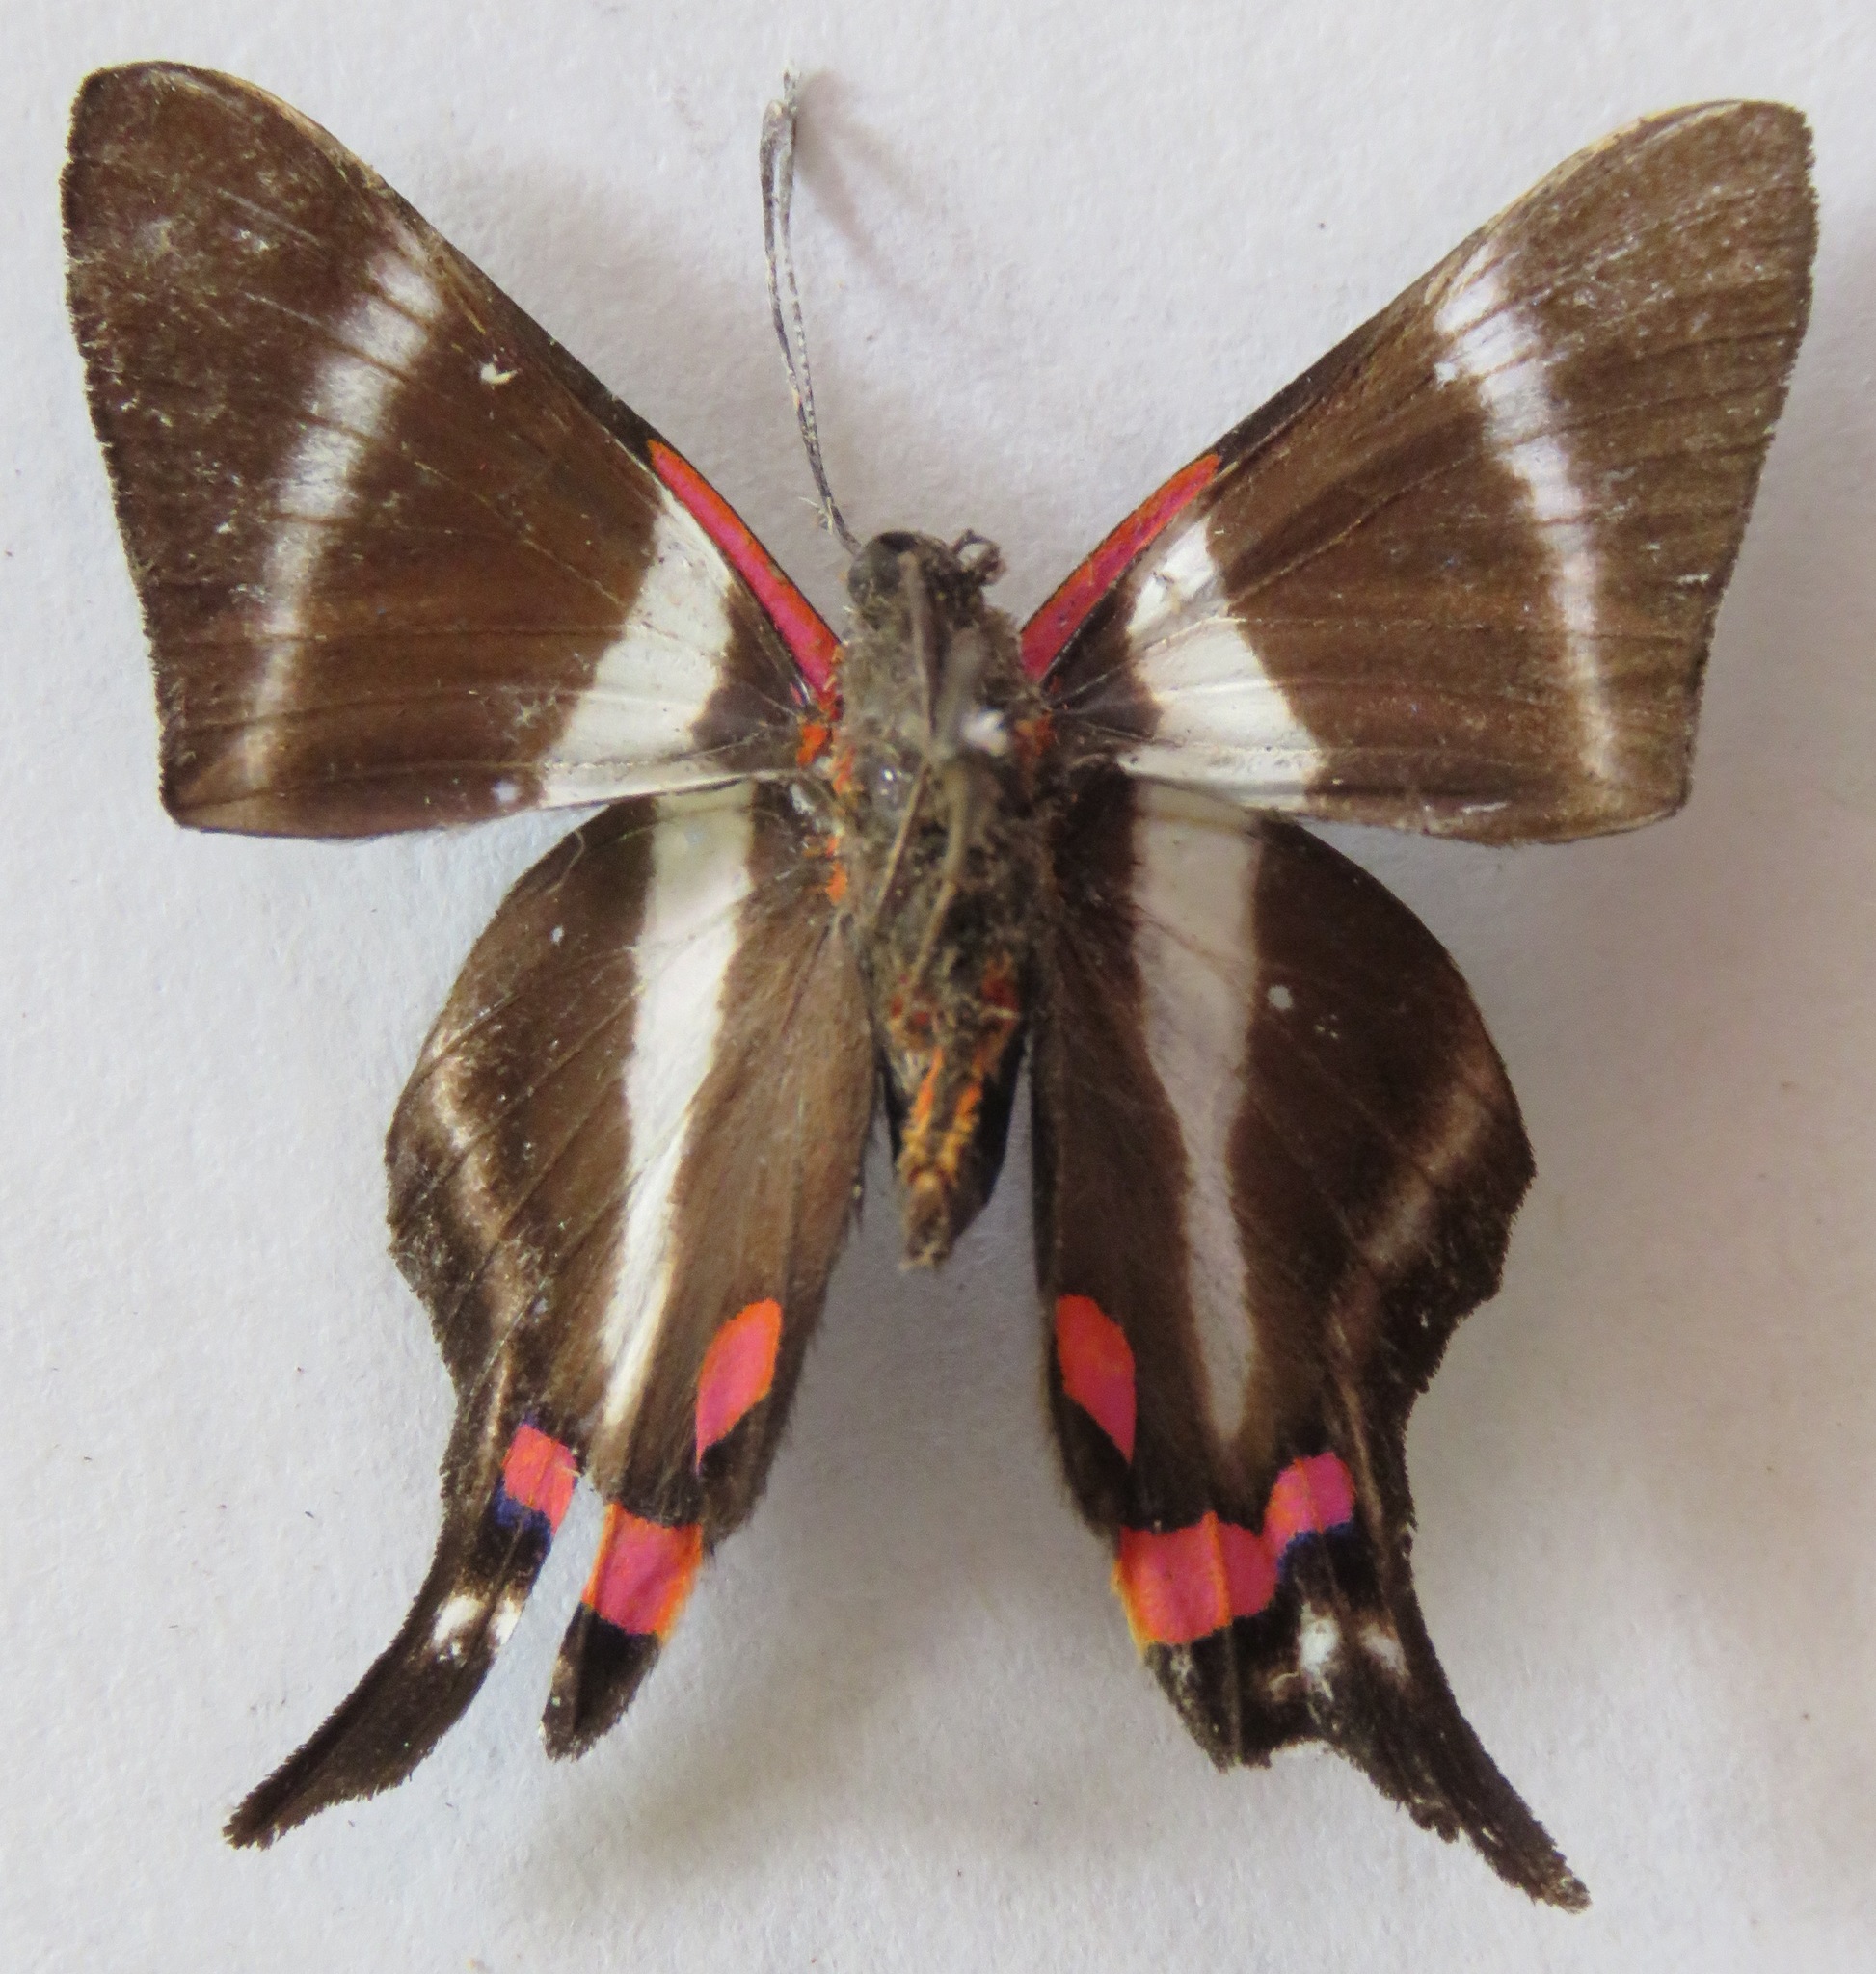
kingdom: Animalia
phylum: Arthropoda
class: Insecta
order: Lepidoptera
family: Riodinidae
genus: Rhetus
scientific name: Rhetus periander
